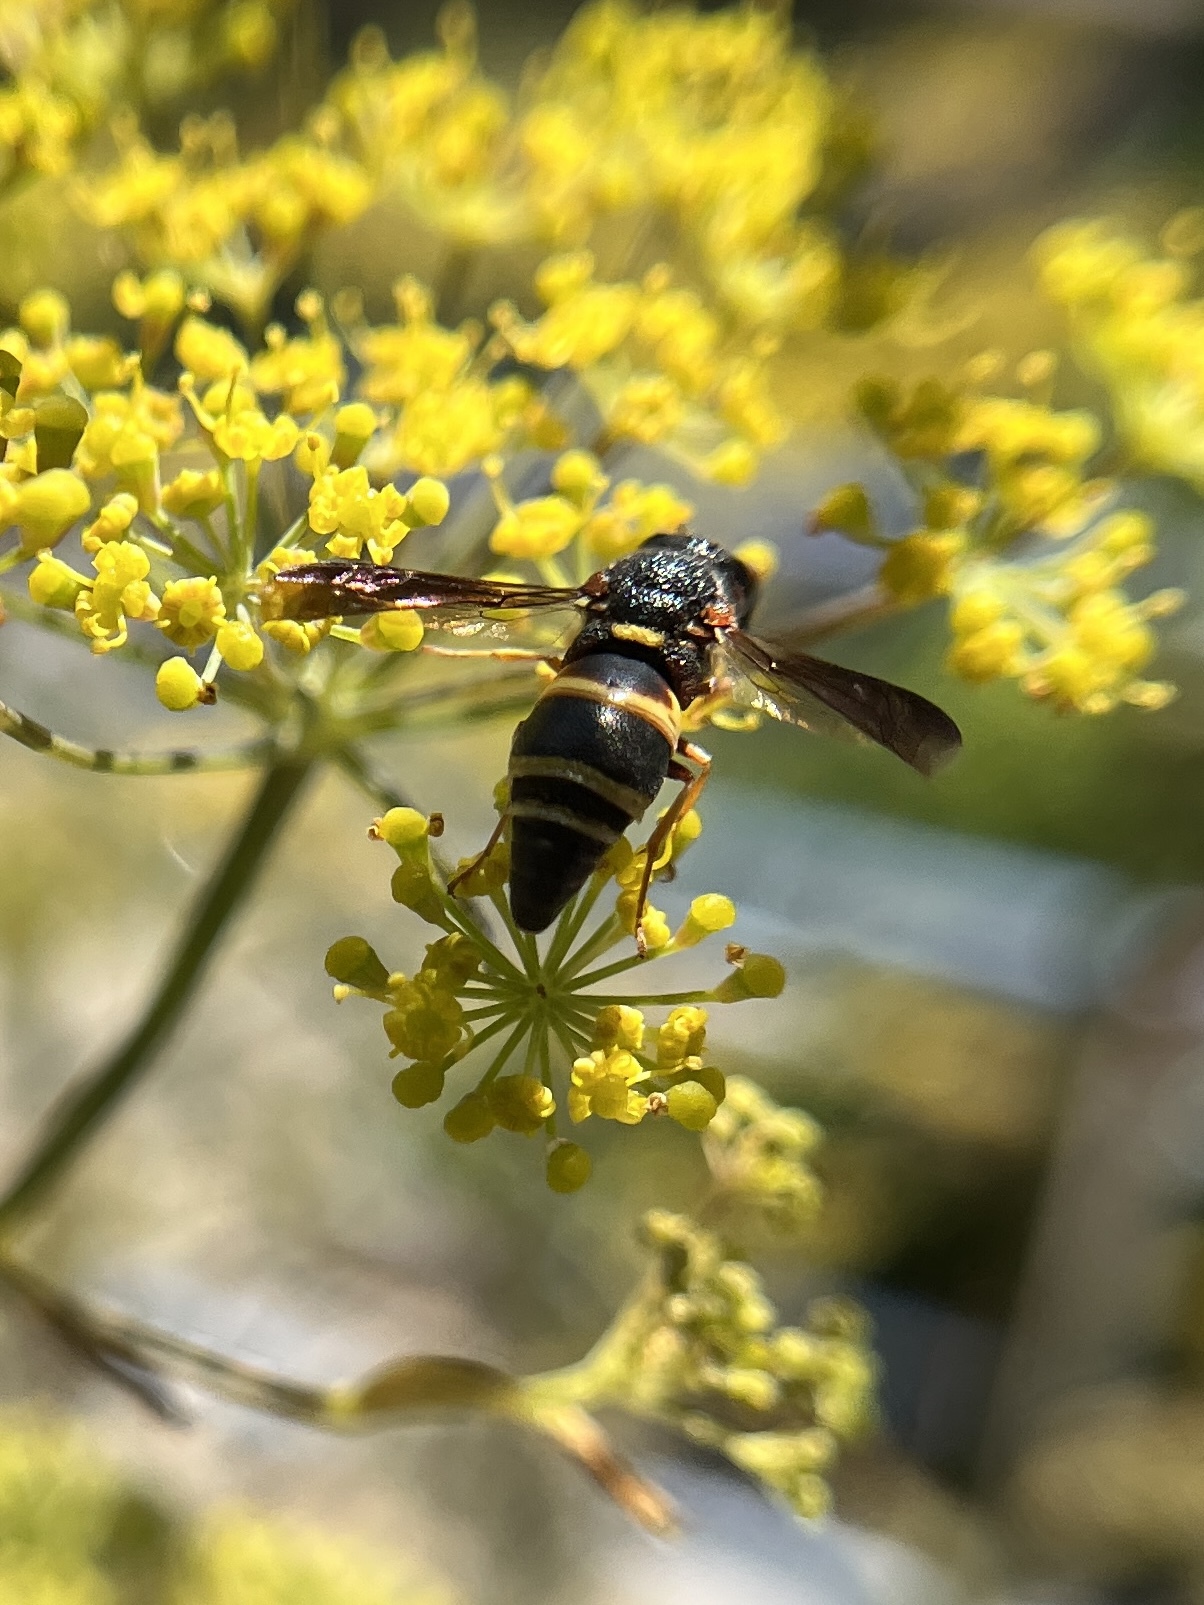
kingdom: Animalia
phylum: Arthropoda
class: Insecta
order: Hymenoptera
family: Eumenidae
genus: Euodynerus
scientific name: Euodynerus hidalgo
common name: Wasp
